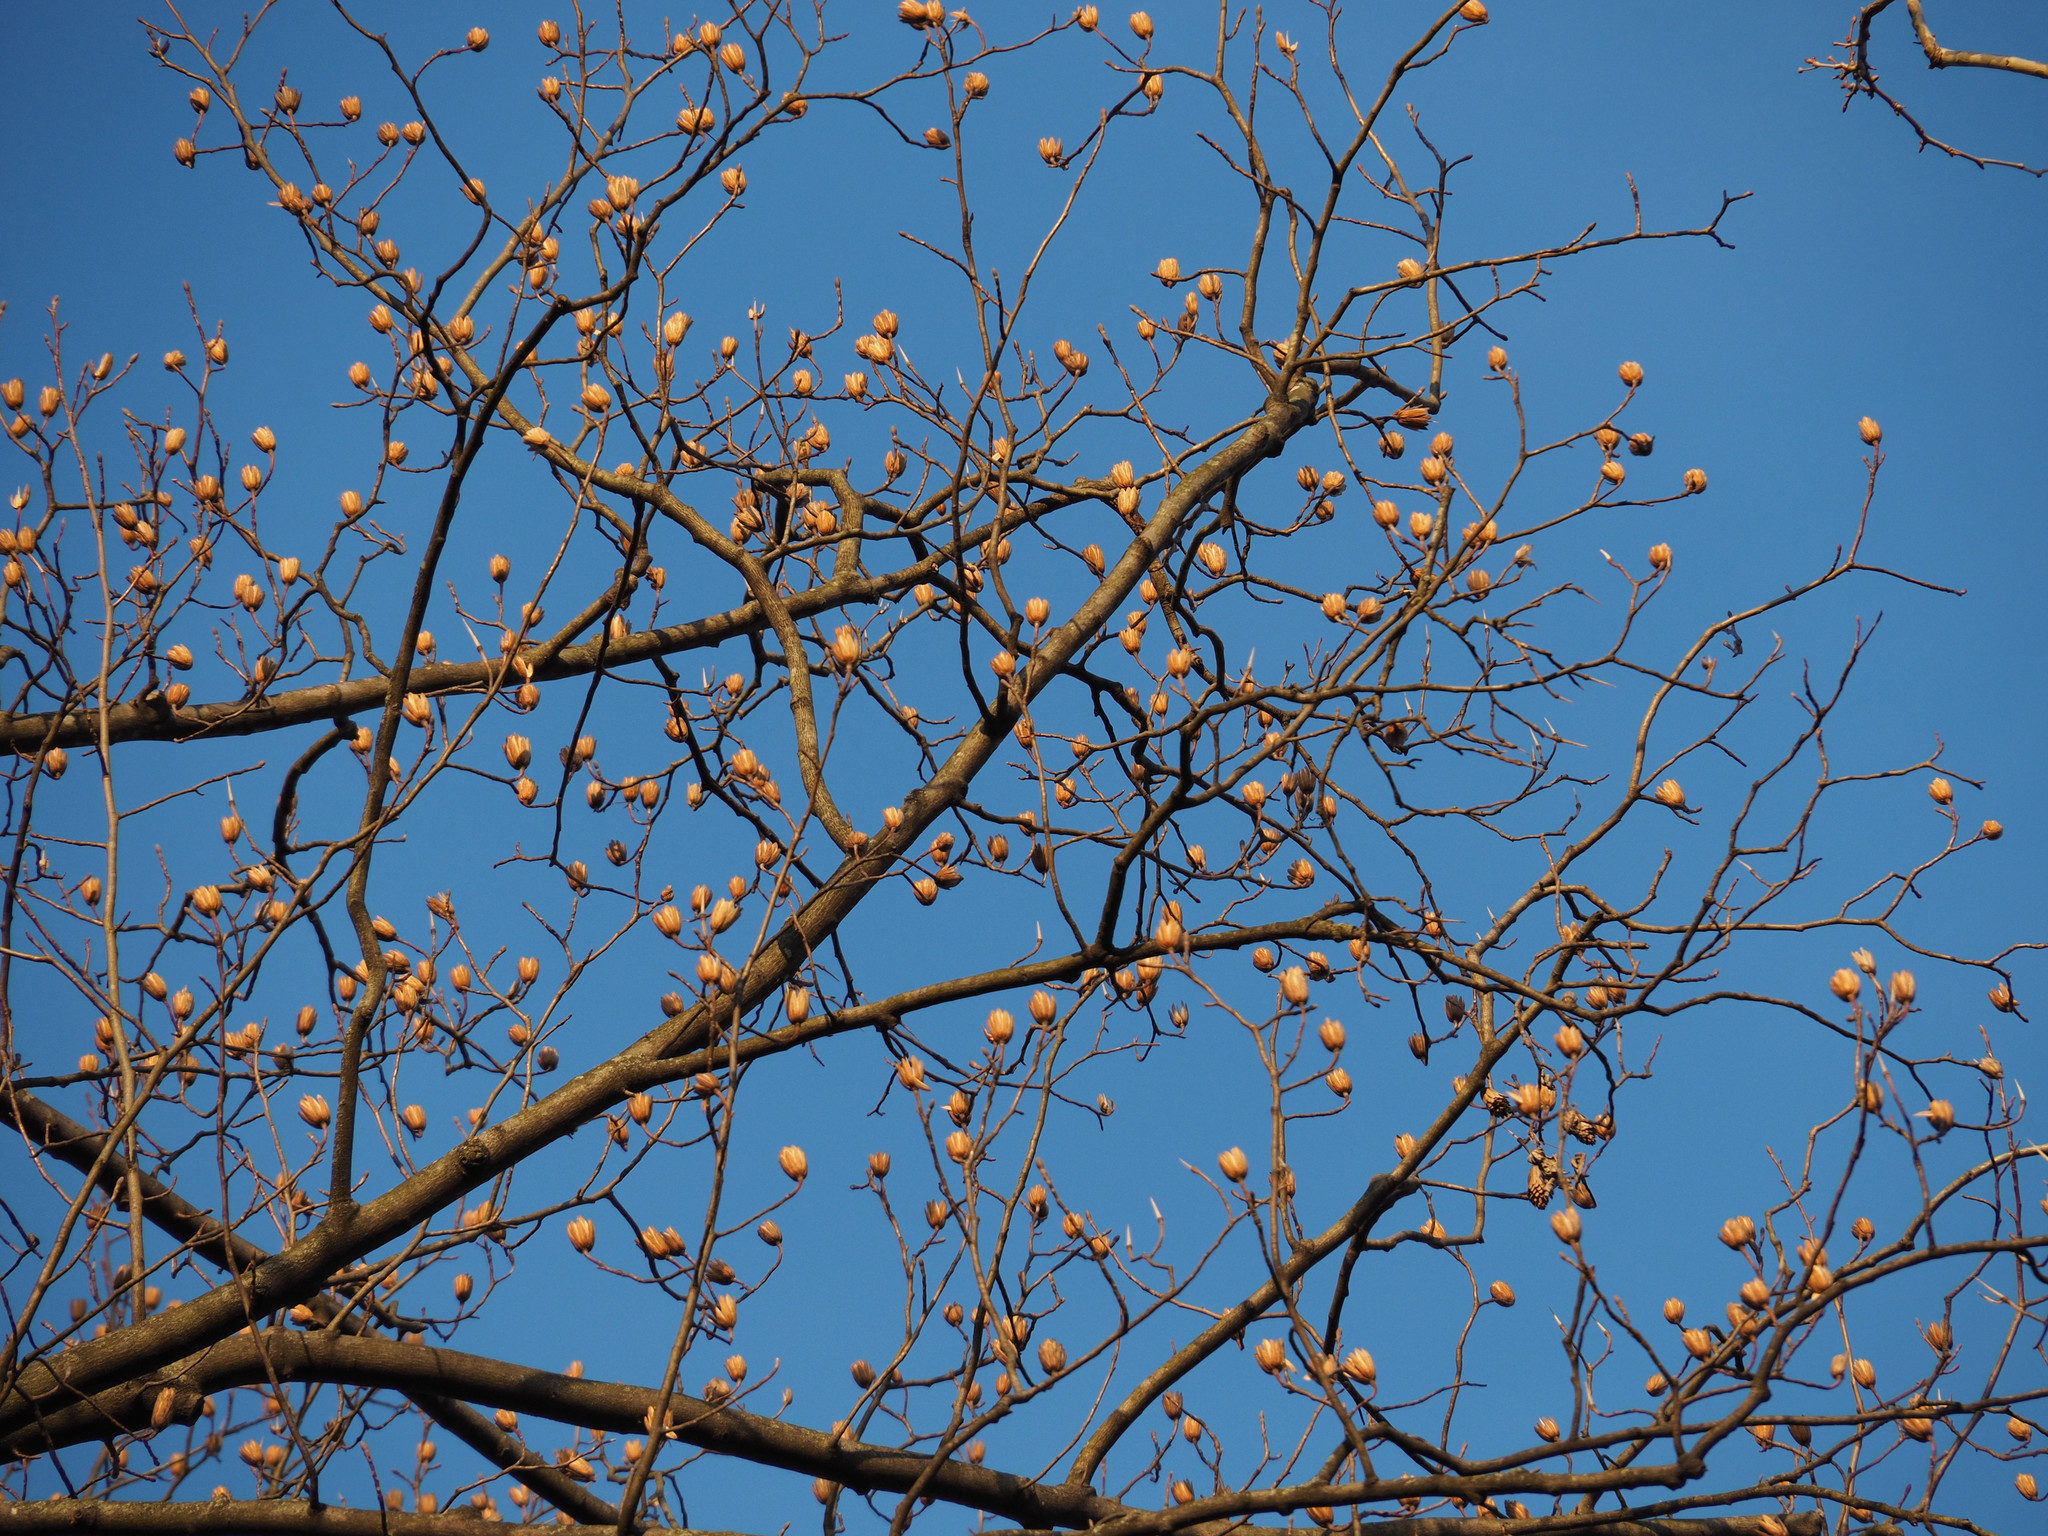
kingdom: Plantae
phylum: Tracheophyta
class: Magnoliopsida
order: Magnoliales
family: Magnoliaceae
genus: Liriodendron
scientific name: Liriodendron tulipifera
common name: Tulip tree
